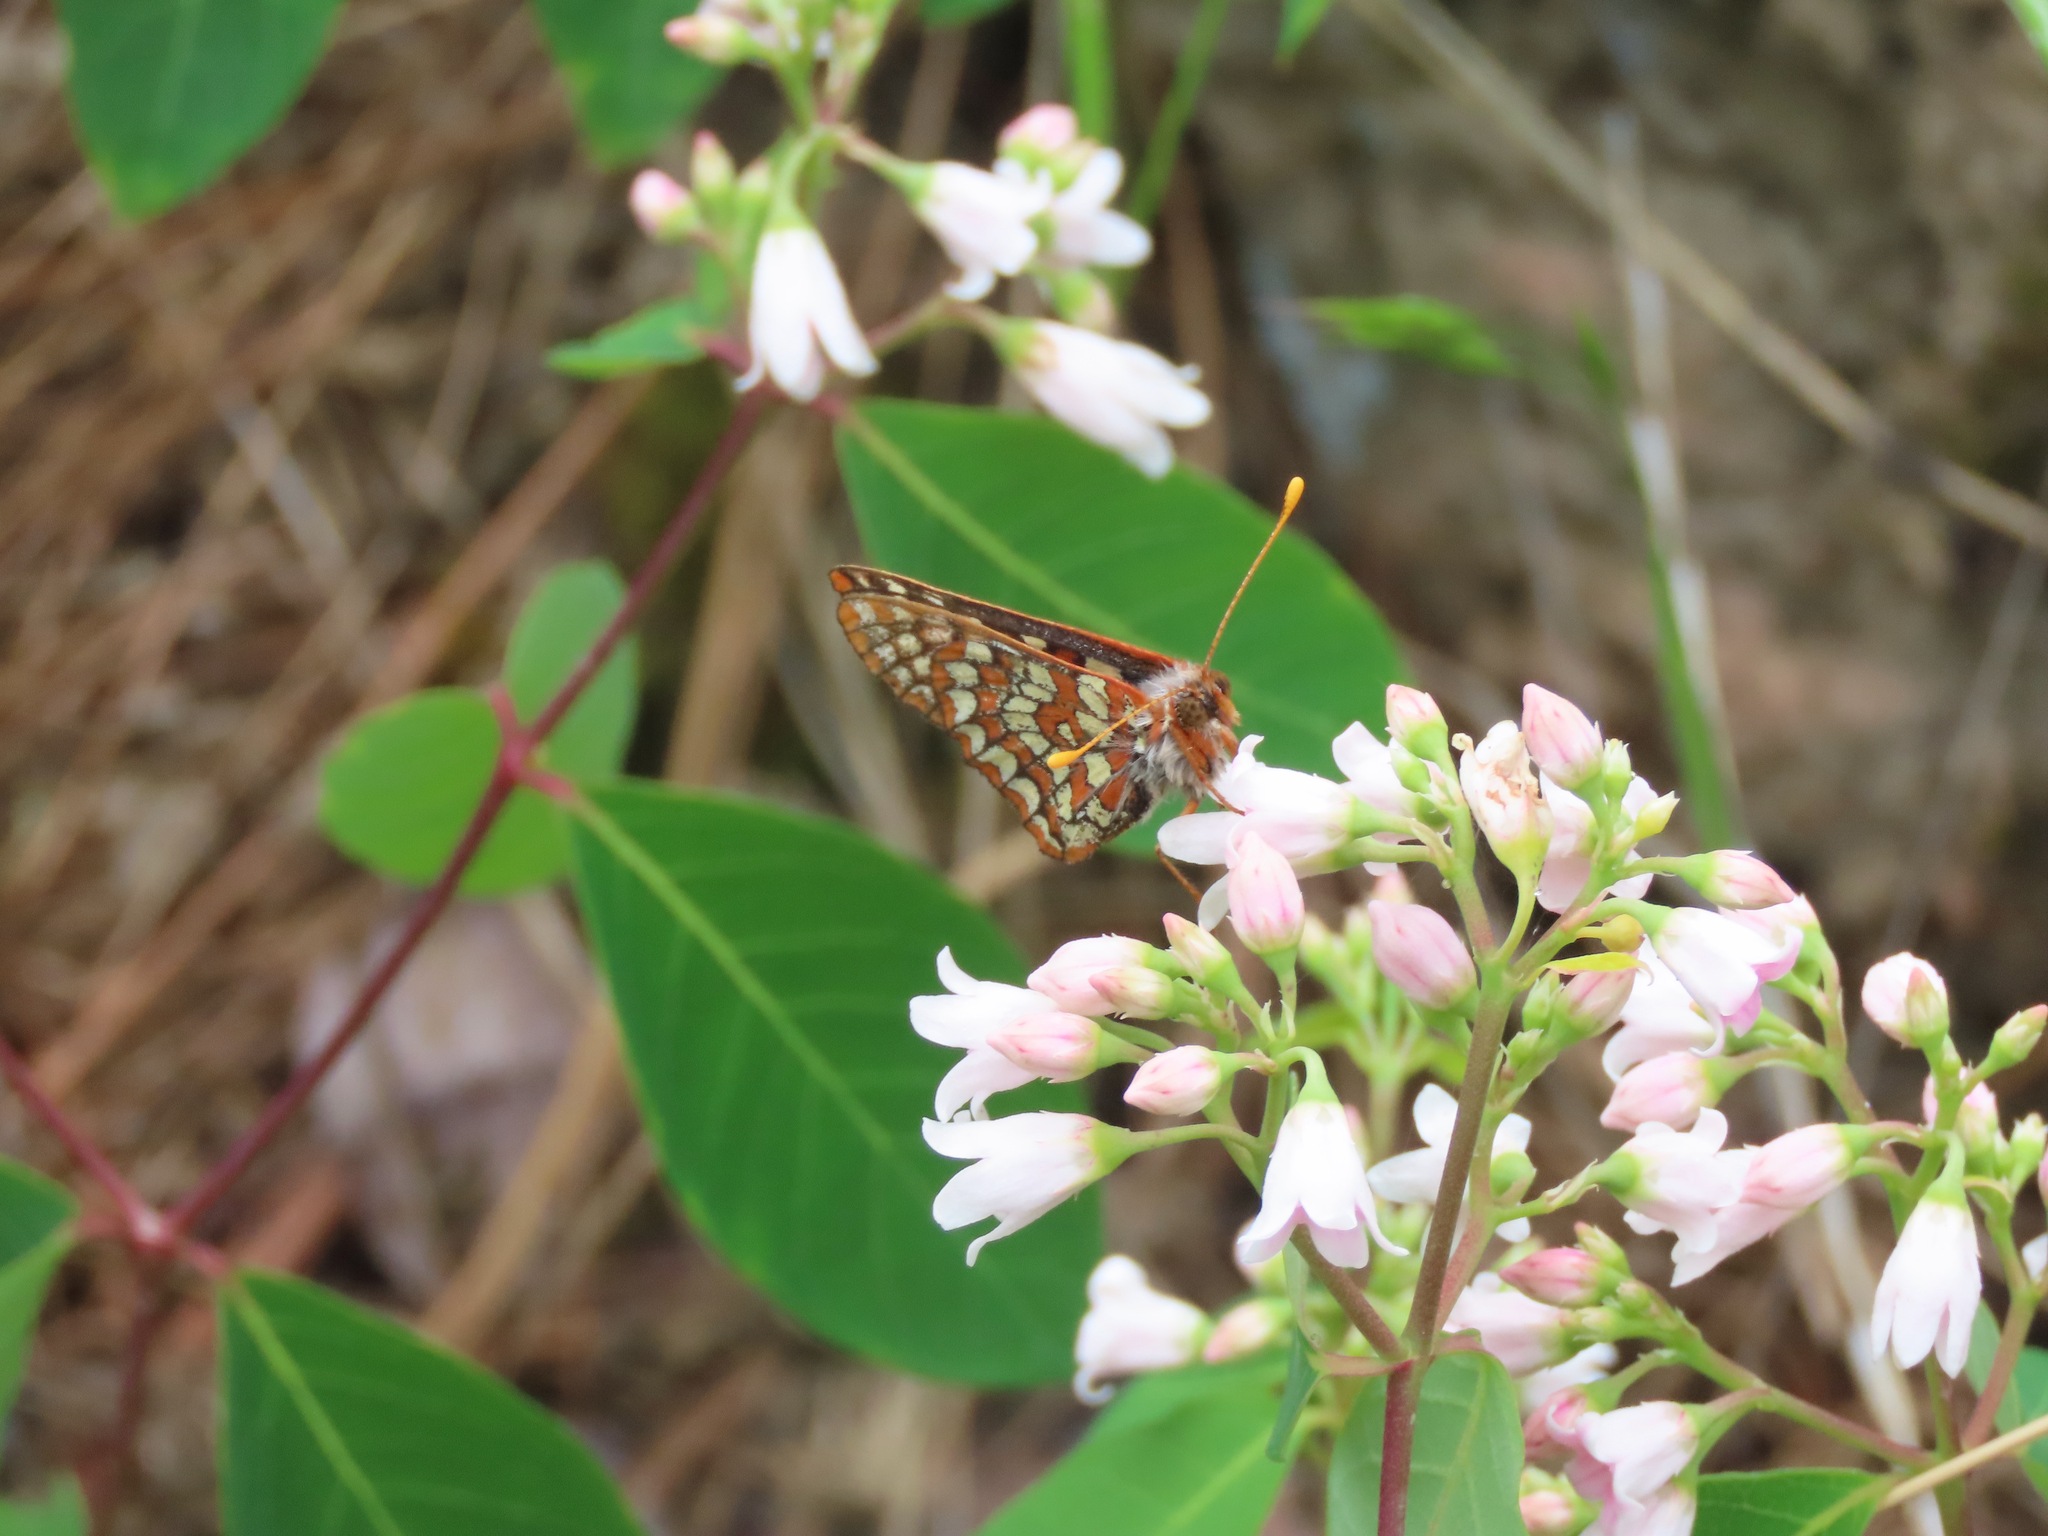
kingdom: Animalia
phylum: Arthropoda
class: Insecta
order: Lepidoptera
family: Nymphalidae
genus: Occidryas
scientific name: Occidryas anicia
